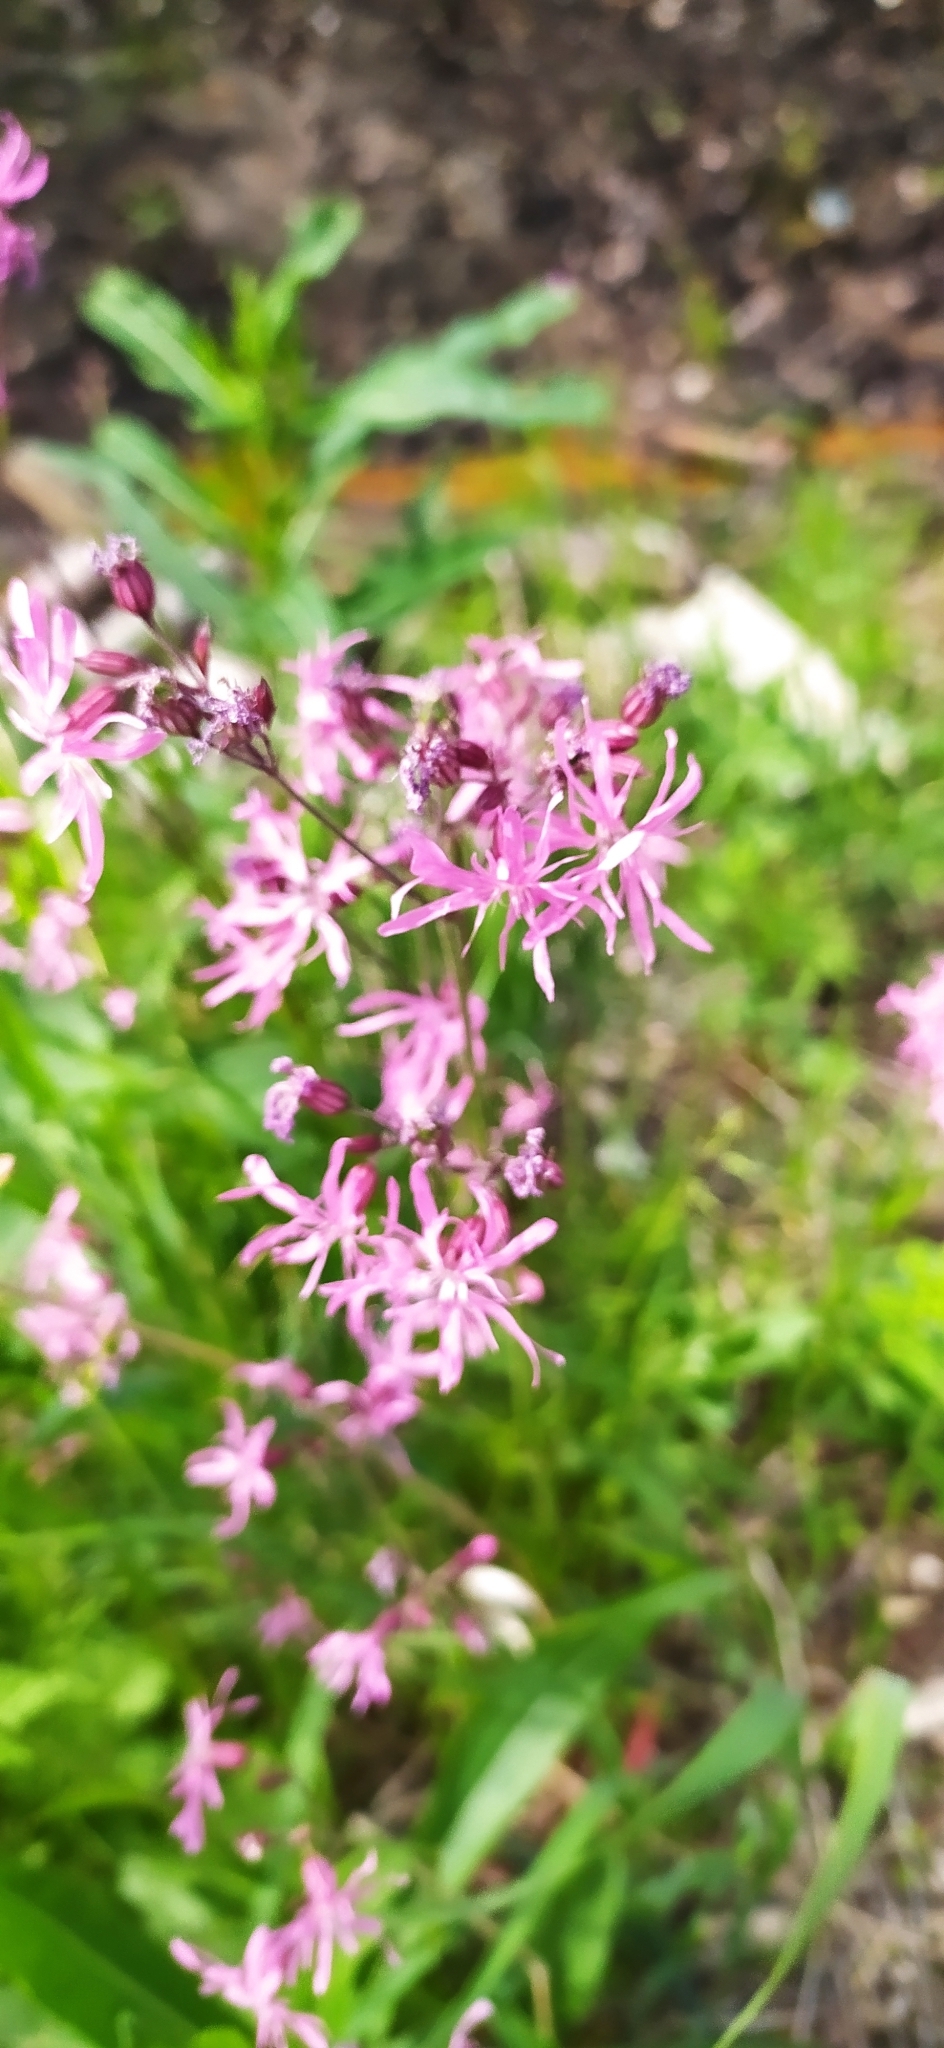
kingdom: Plantae
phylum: Tracheophyta
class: Magnoliopsida
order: Caryophyllales
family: Caryophyllaceae
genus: Silene
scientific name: Silene flos-cuculi
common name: Ragged-robin
